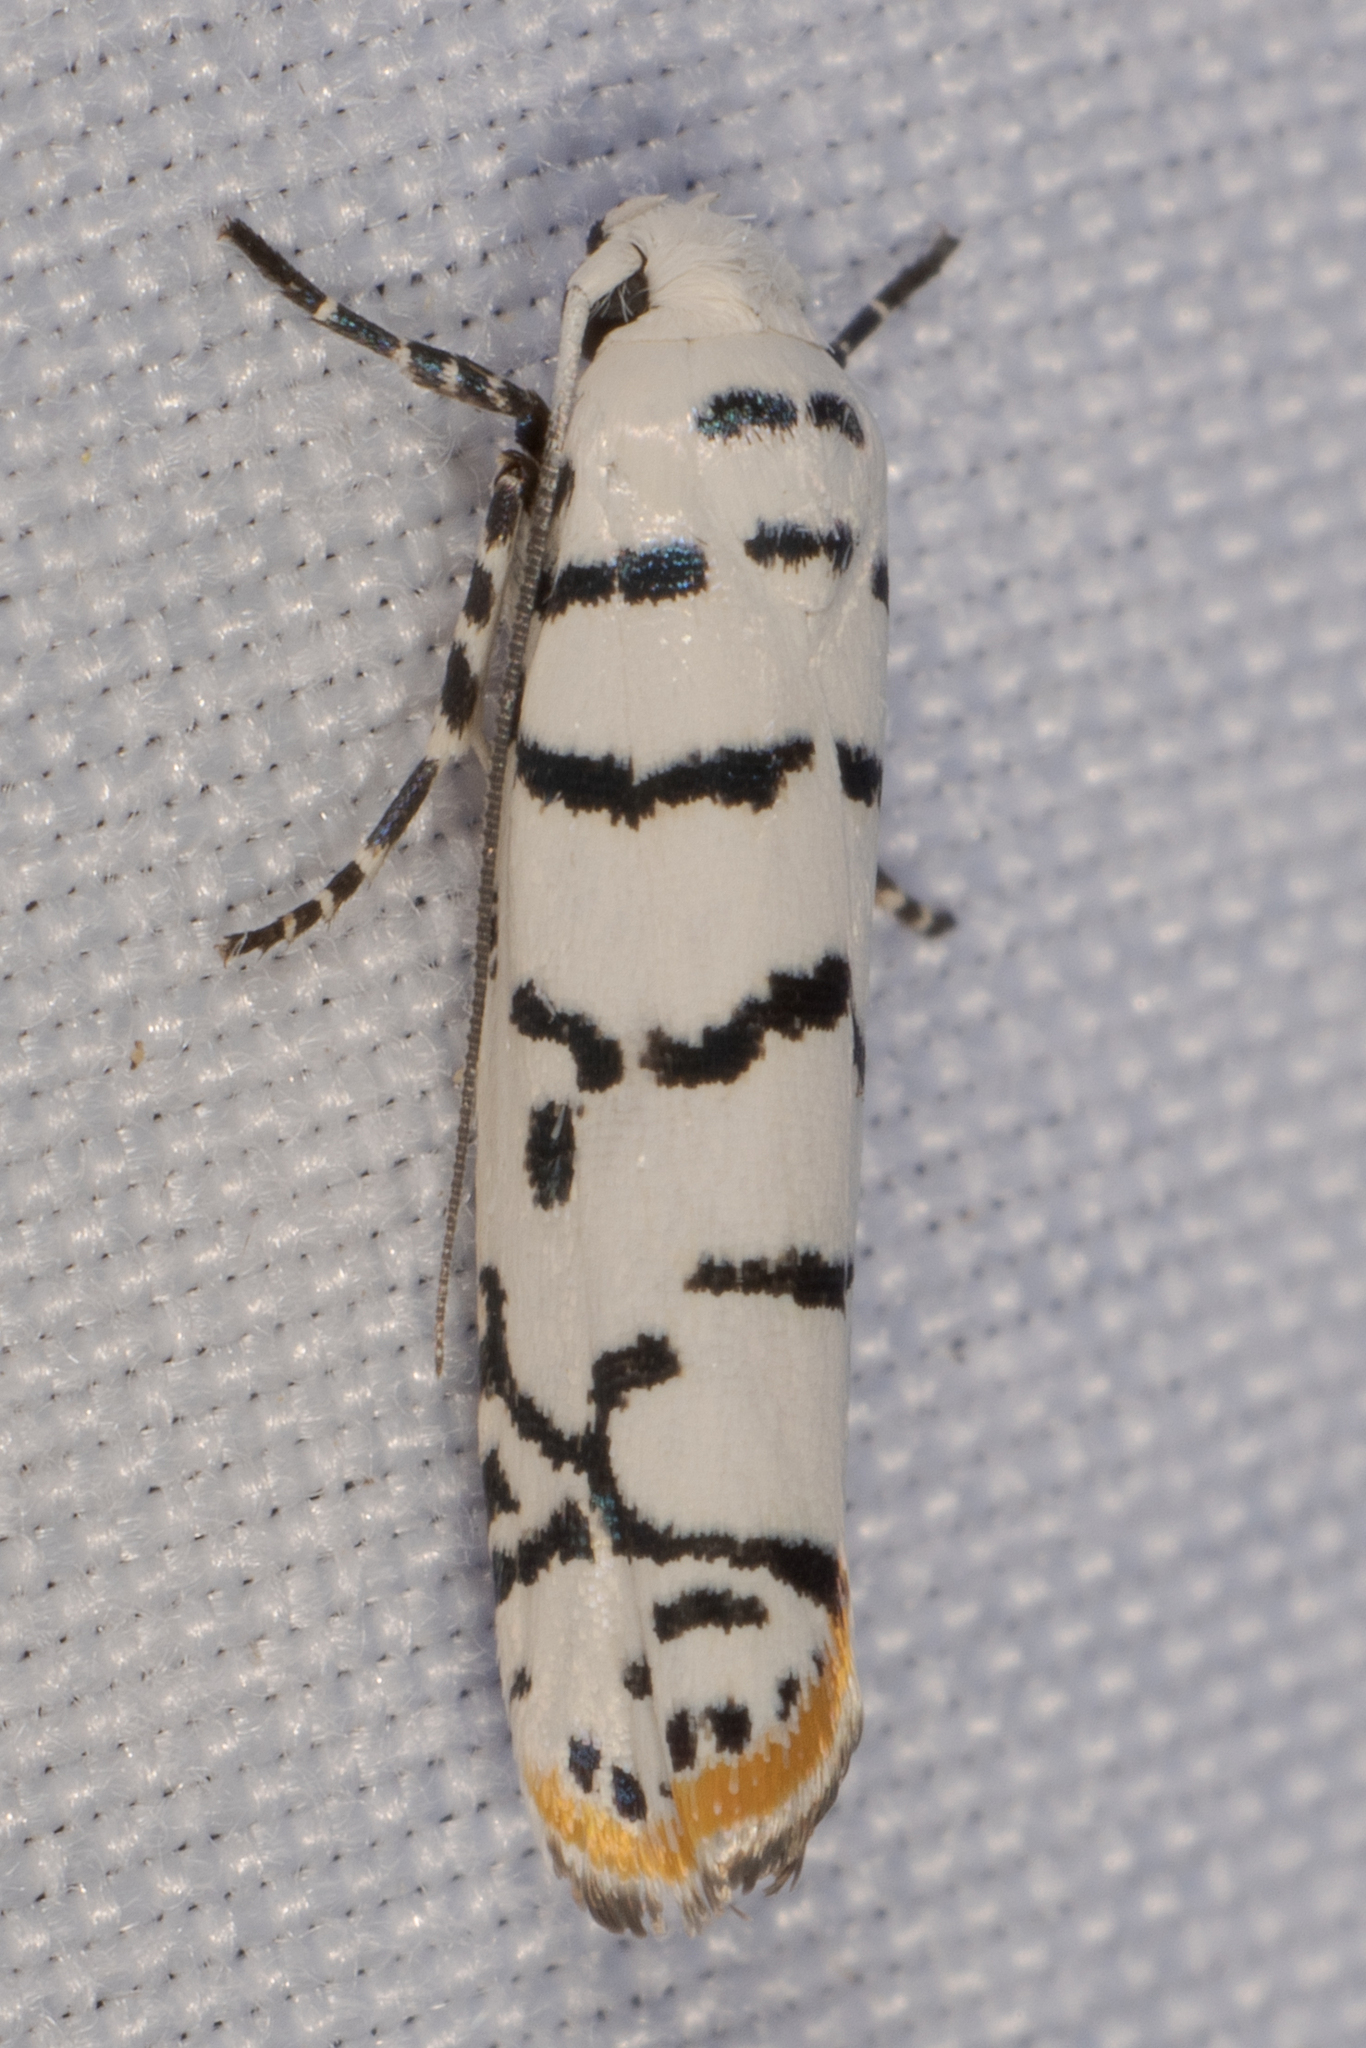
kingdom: Animalia
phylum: Arthropoda
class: Insecta
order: Lepidoptera
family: Ethmiidae
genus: Ethmia
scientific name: Ethmia delliella
